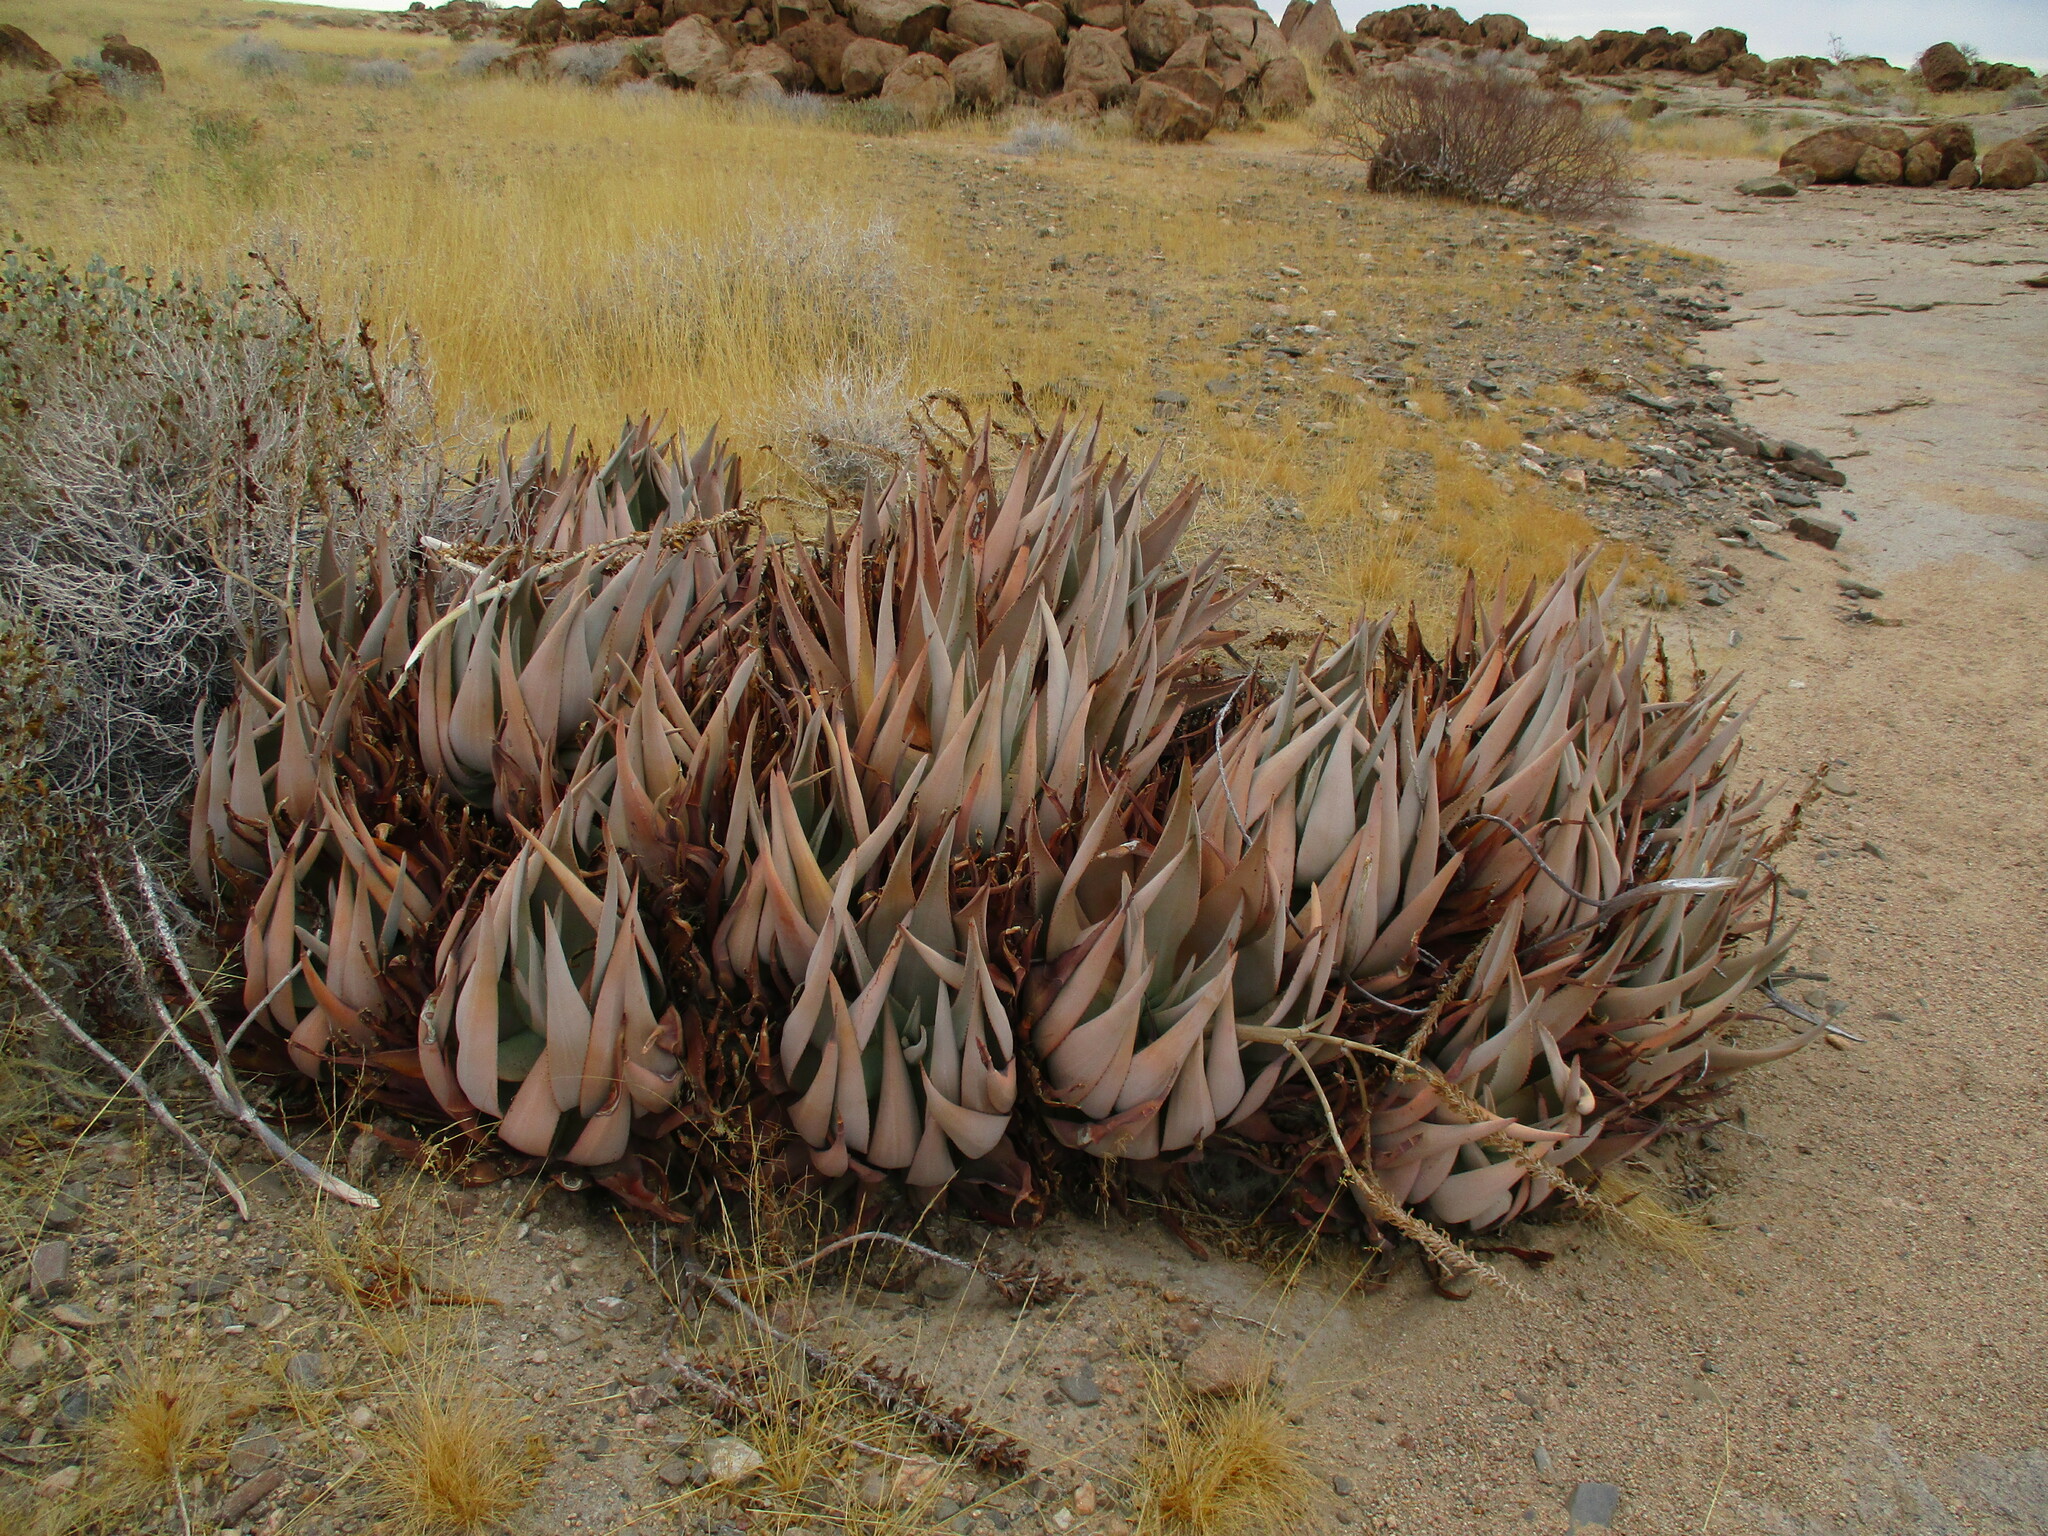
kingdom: Plantae
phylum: Tracheophyta
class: Liliopsida
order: Asparagales
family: Asphodelaceae
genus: Aloe
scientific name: Aloe asperifolia
